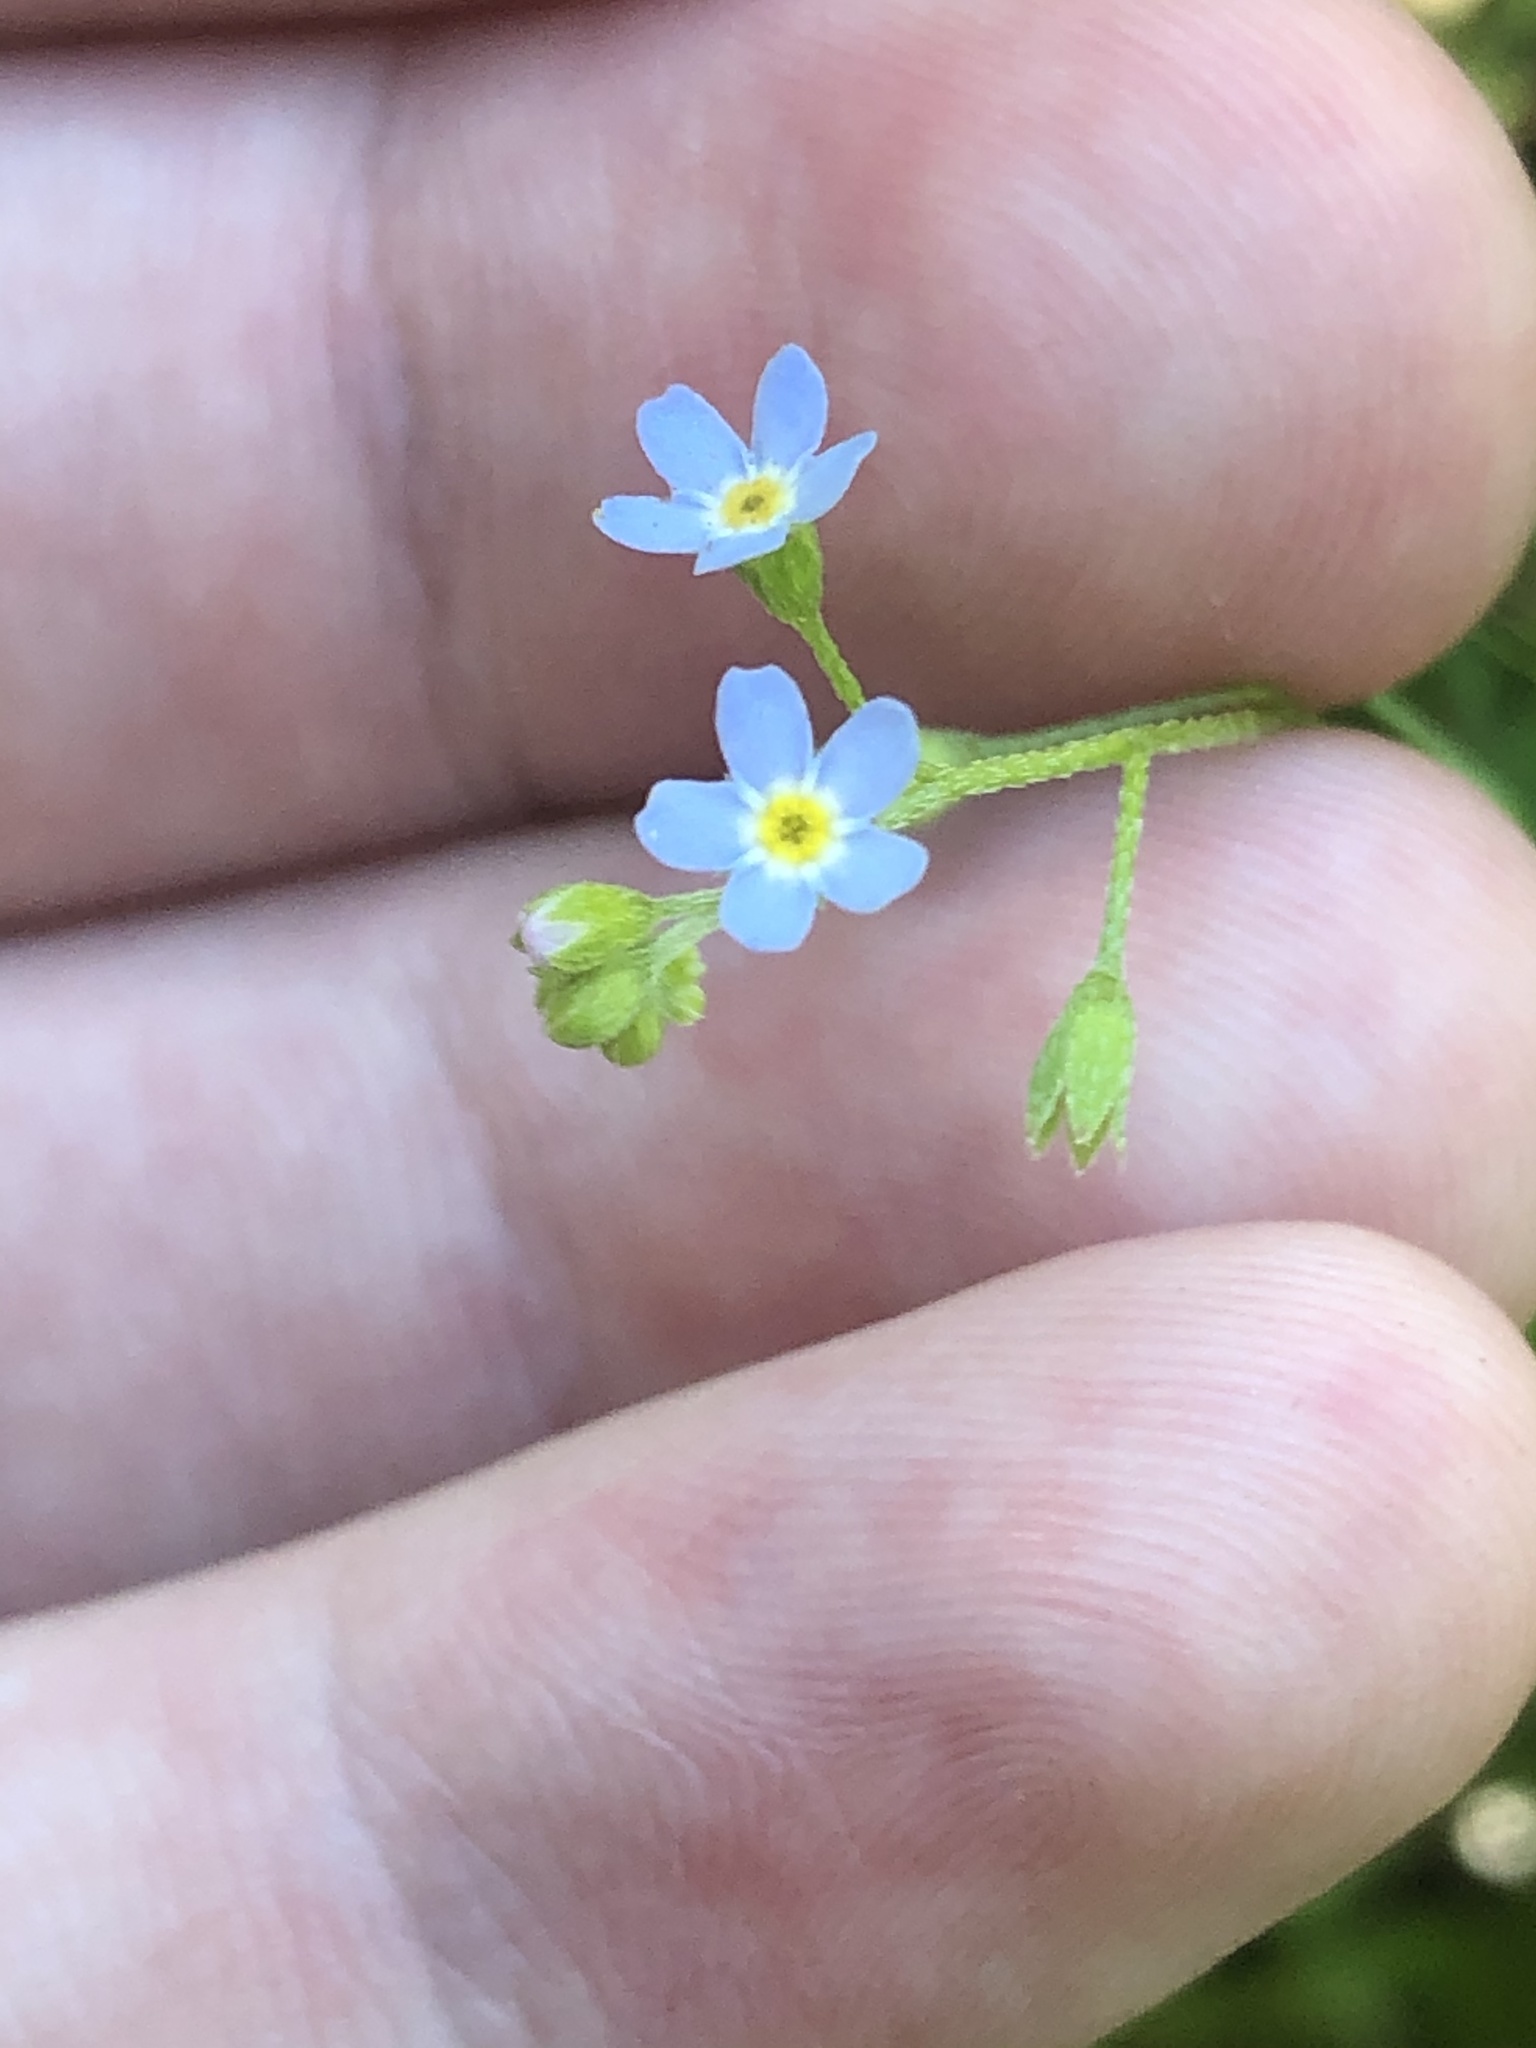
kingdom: Plantae
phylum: Tracheophyta
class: Magnoliopsida
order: Boraginales
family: Boraginaceae
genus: Myosotis
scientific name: Myosotis laxa
